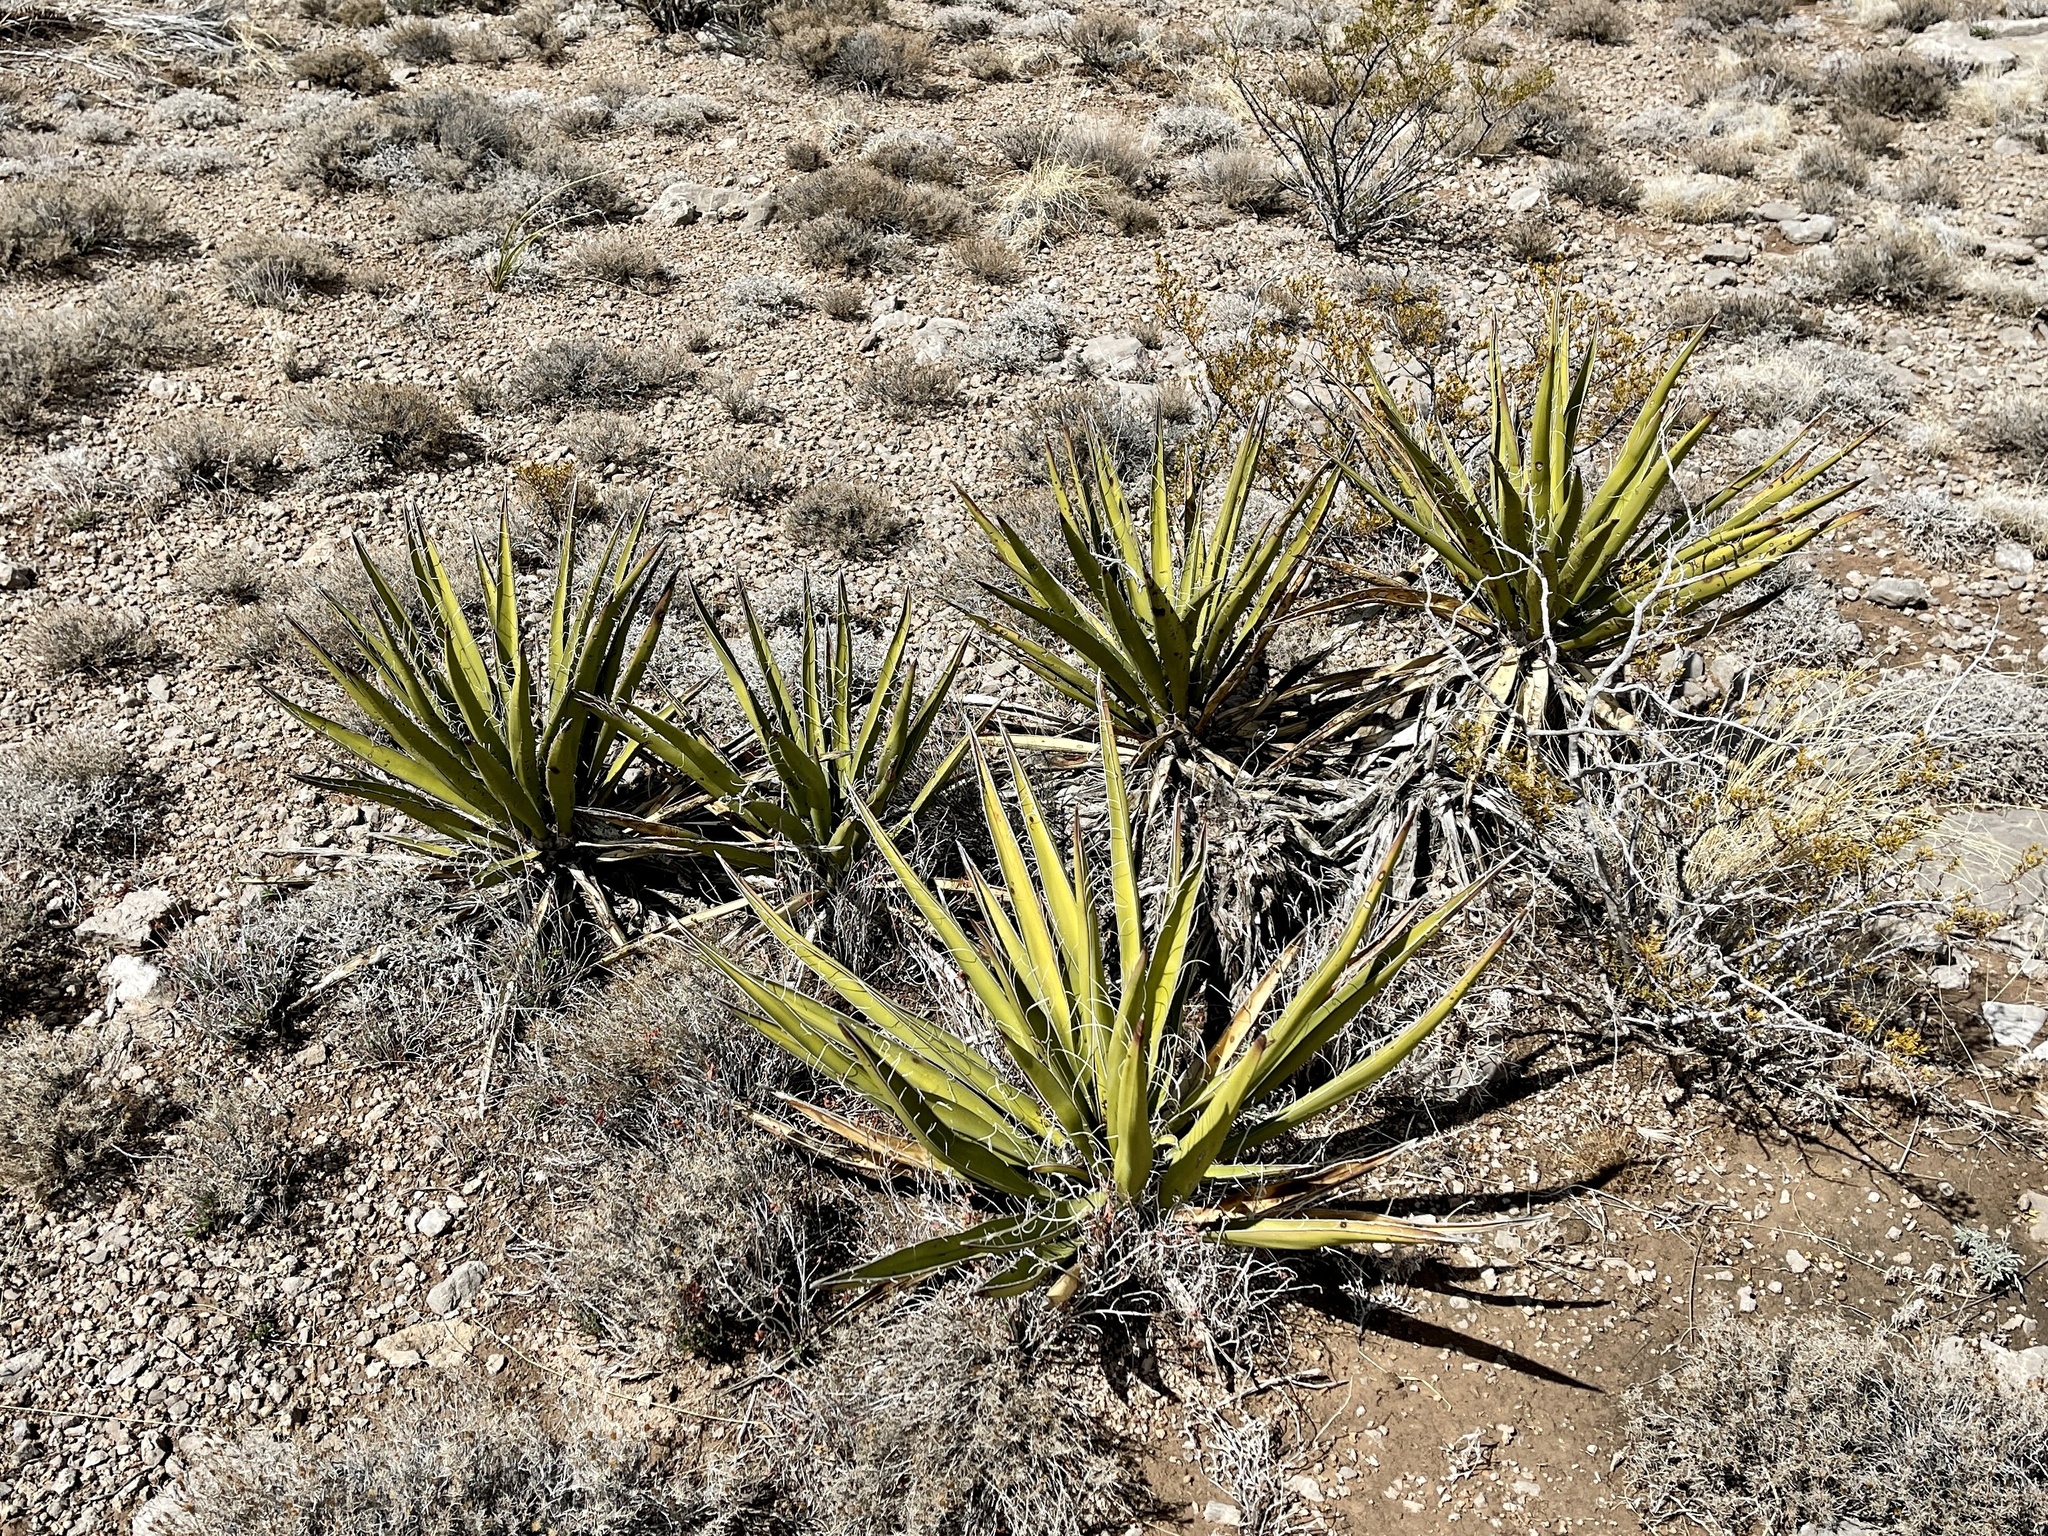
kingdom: Plantae
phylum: Tracheophyta
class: Liliopsida
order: Asparagales
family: Asparagaceae
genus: Yucca
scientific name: Yucca baccata
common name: Banana yucca
